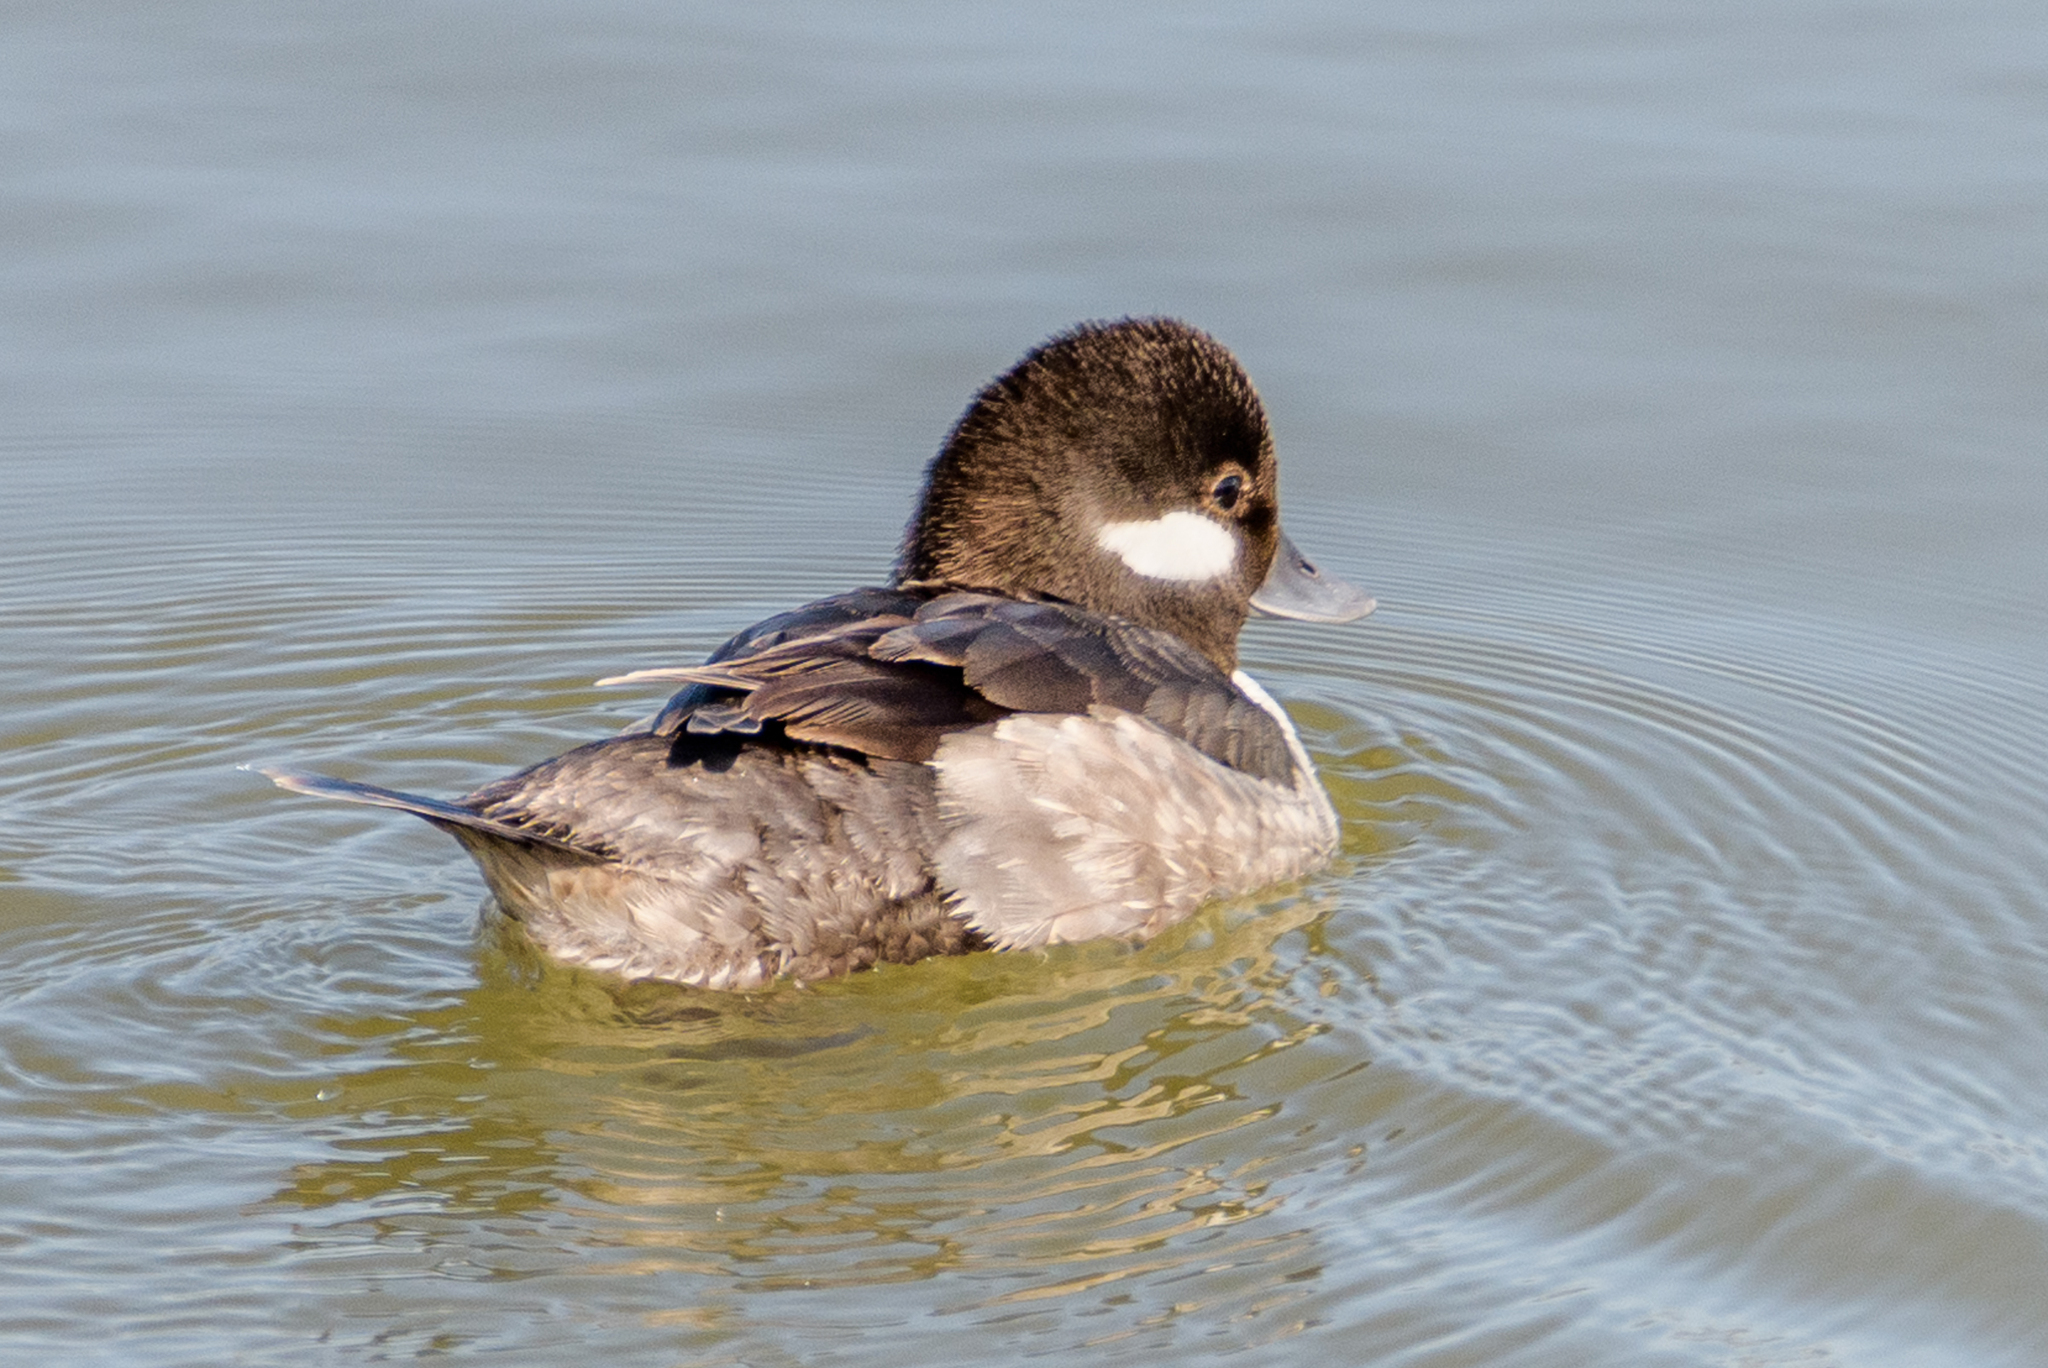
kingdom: Animalia
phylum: Chordata
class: Aves
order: Anseriformes
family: Anatidae
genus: Bucephala
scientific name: Bucephala albeola
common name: Bufflehead
